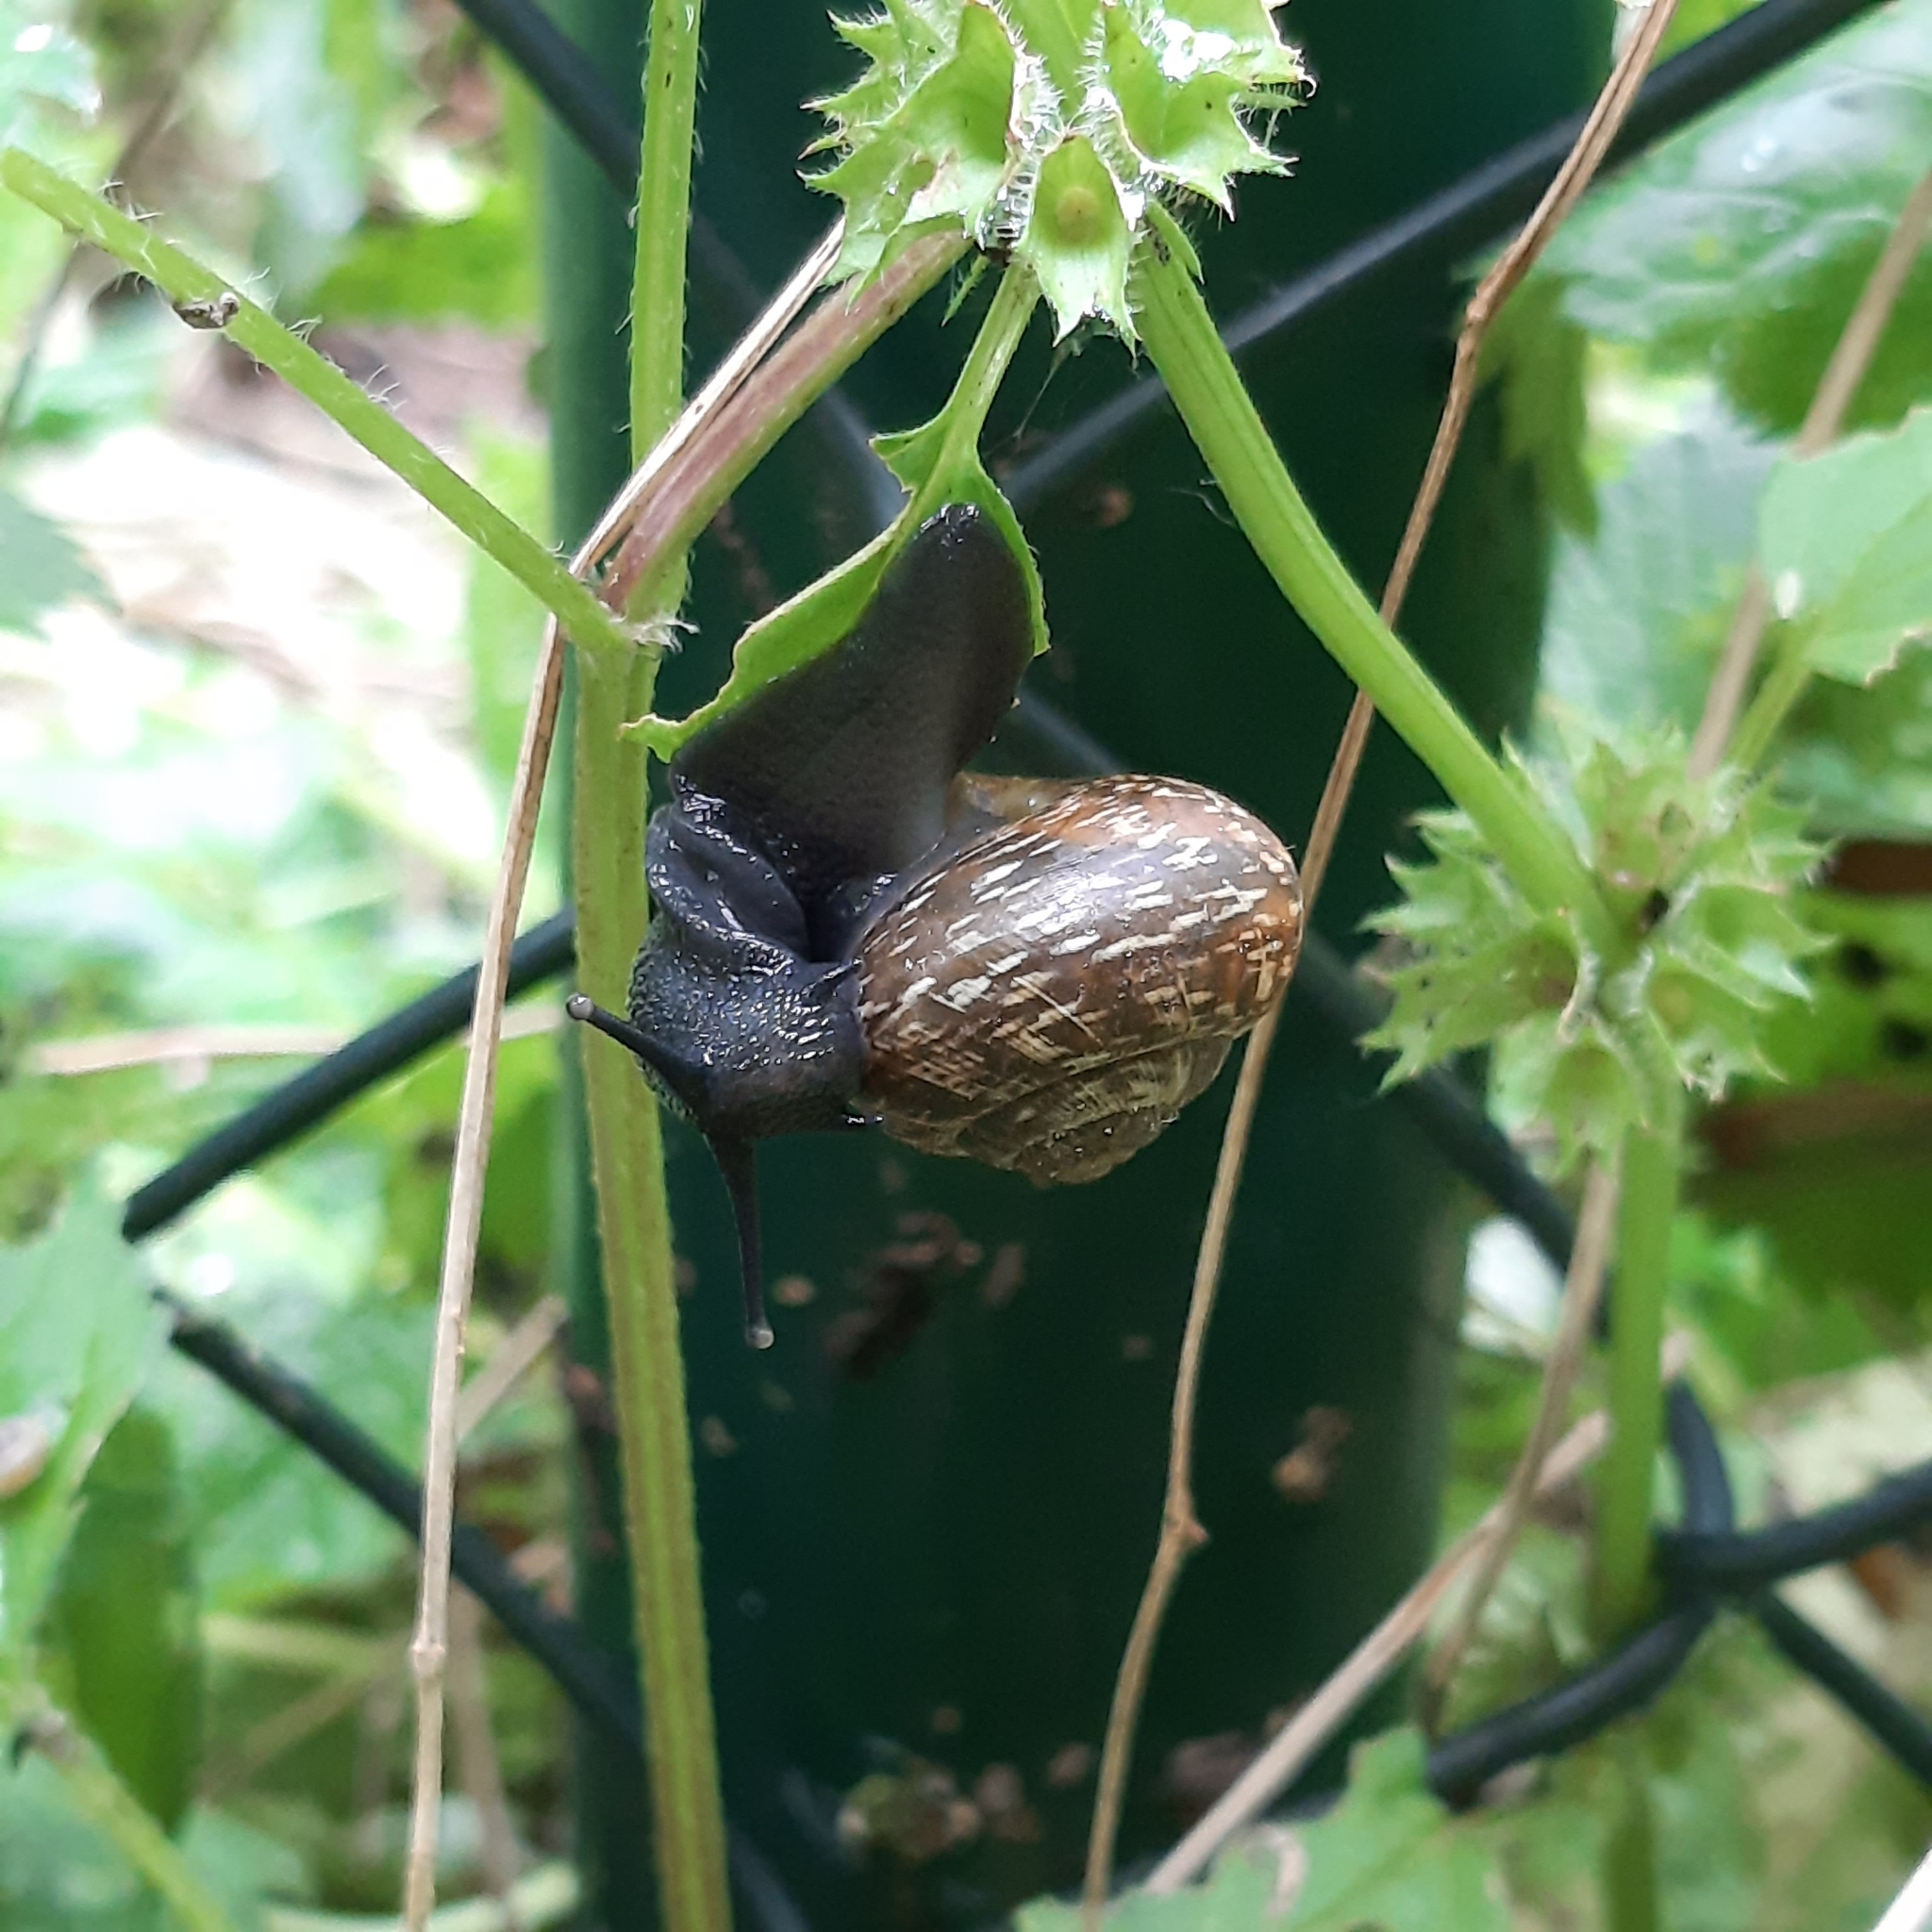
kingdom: Animalia
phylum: Mollusca
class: Gastropoda
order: Stylommatophora
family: Helicidae
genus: Arianta
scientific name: Arianta arbustorum
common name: Copse snail
